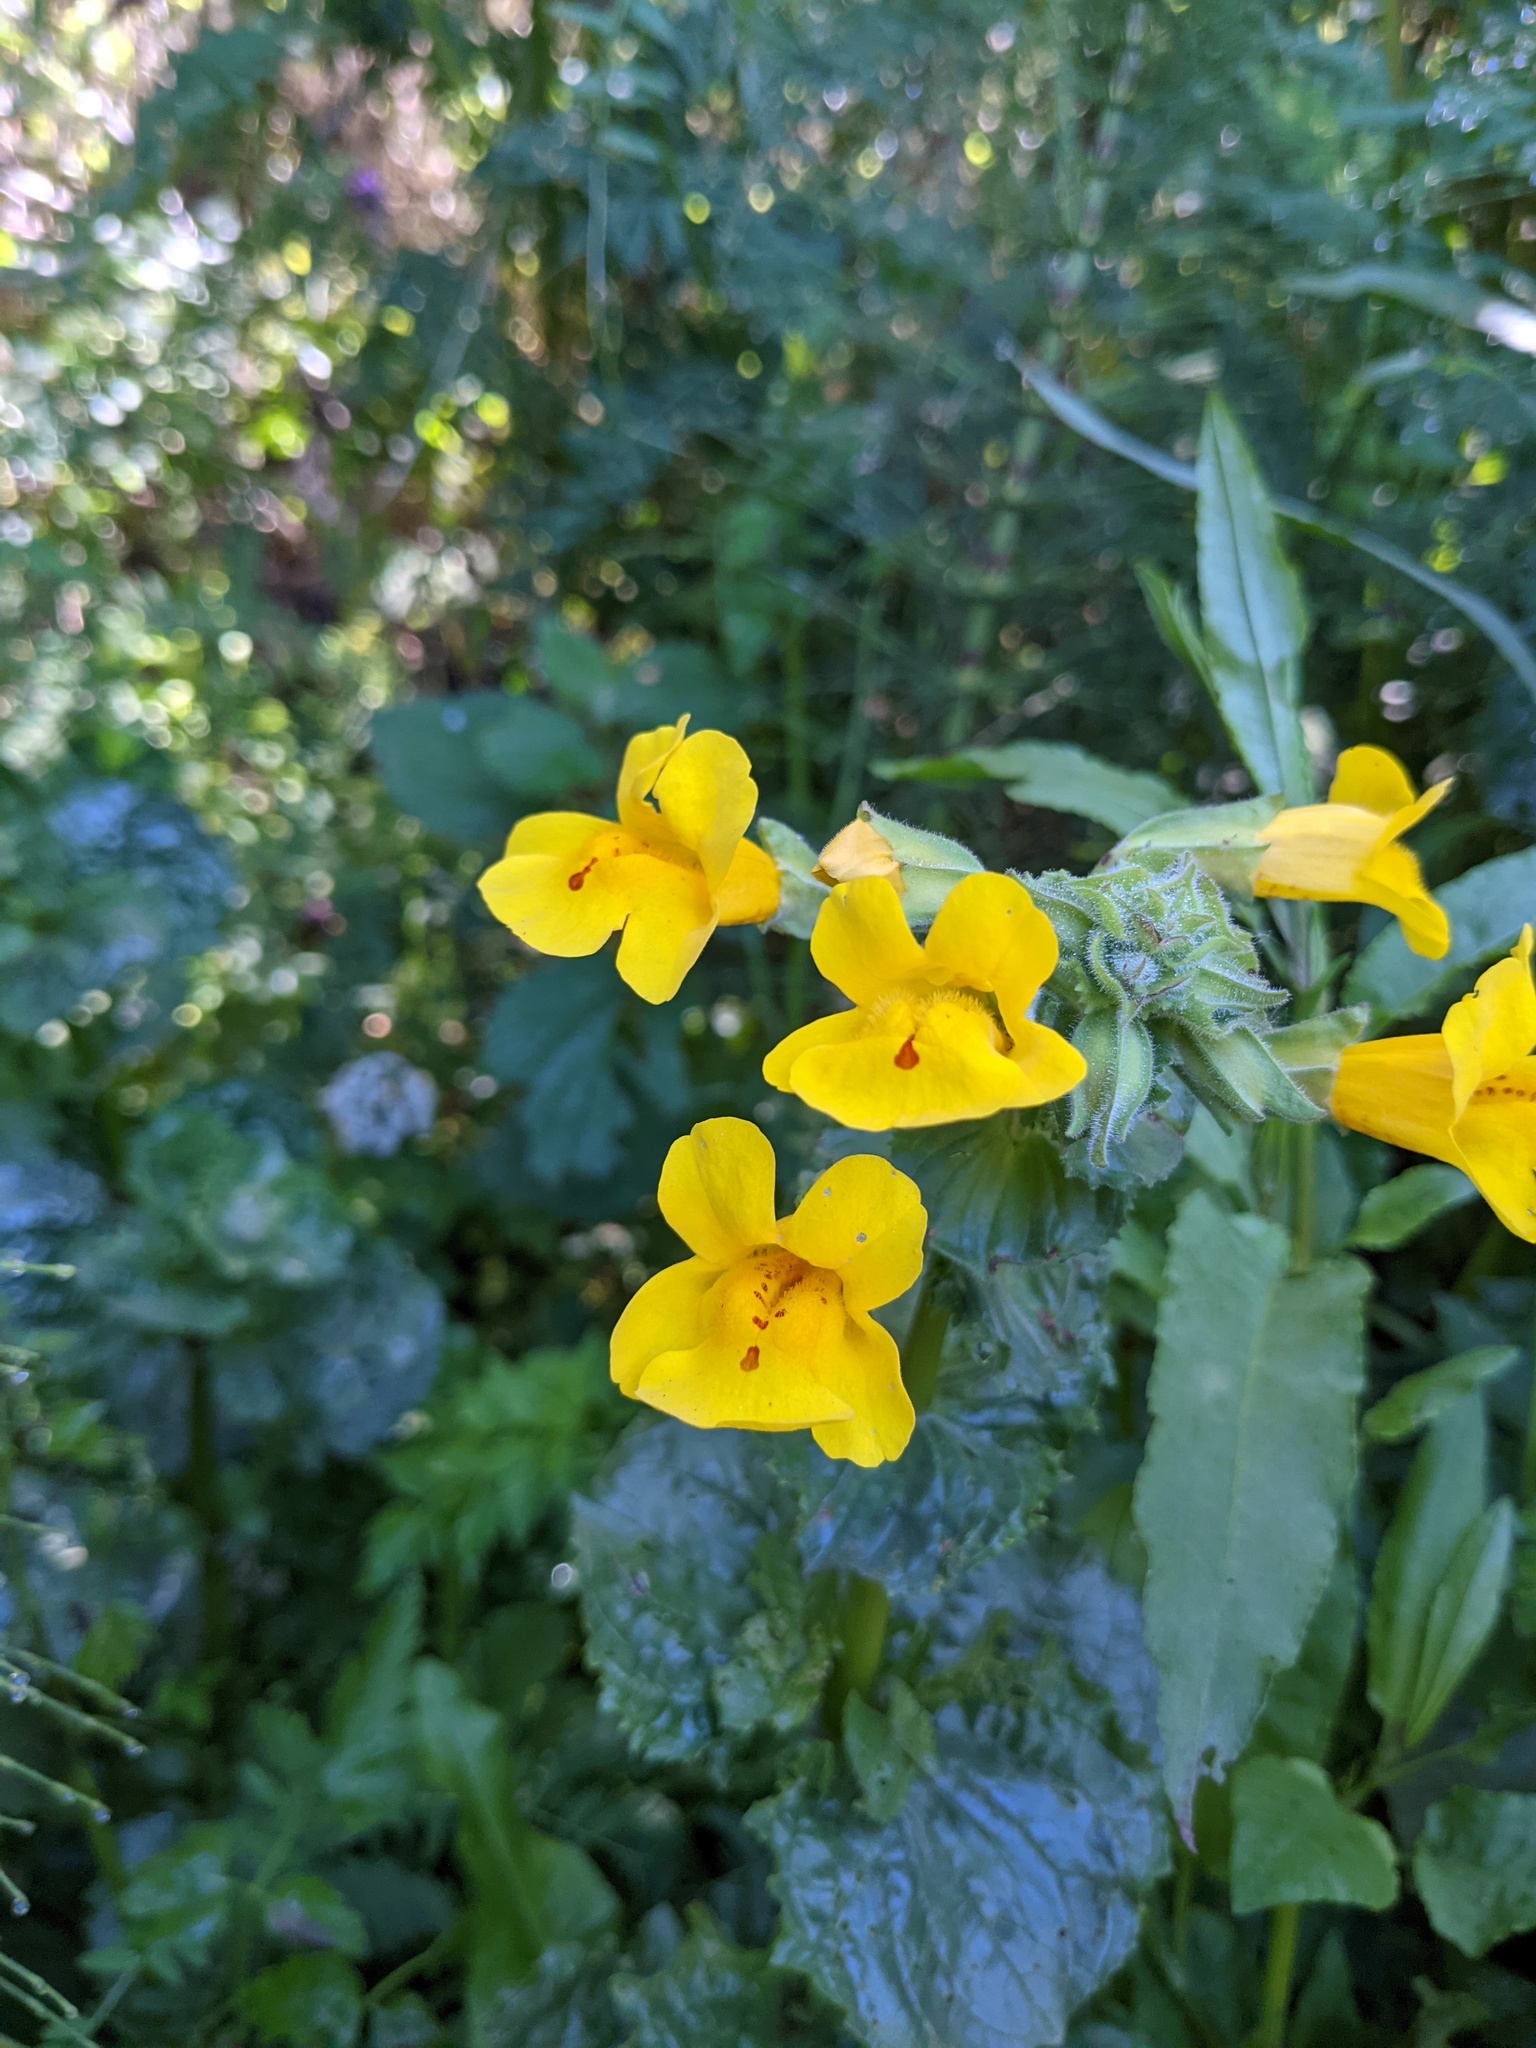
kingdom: Plantae
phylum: Tracheophyta
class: Magnoliopsida
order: Lamiales
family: Phrymaceae
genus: Erythranthe
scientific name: Erythranthe grandis
